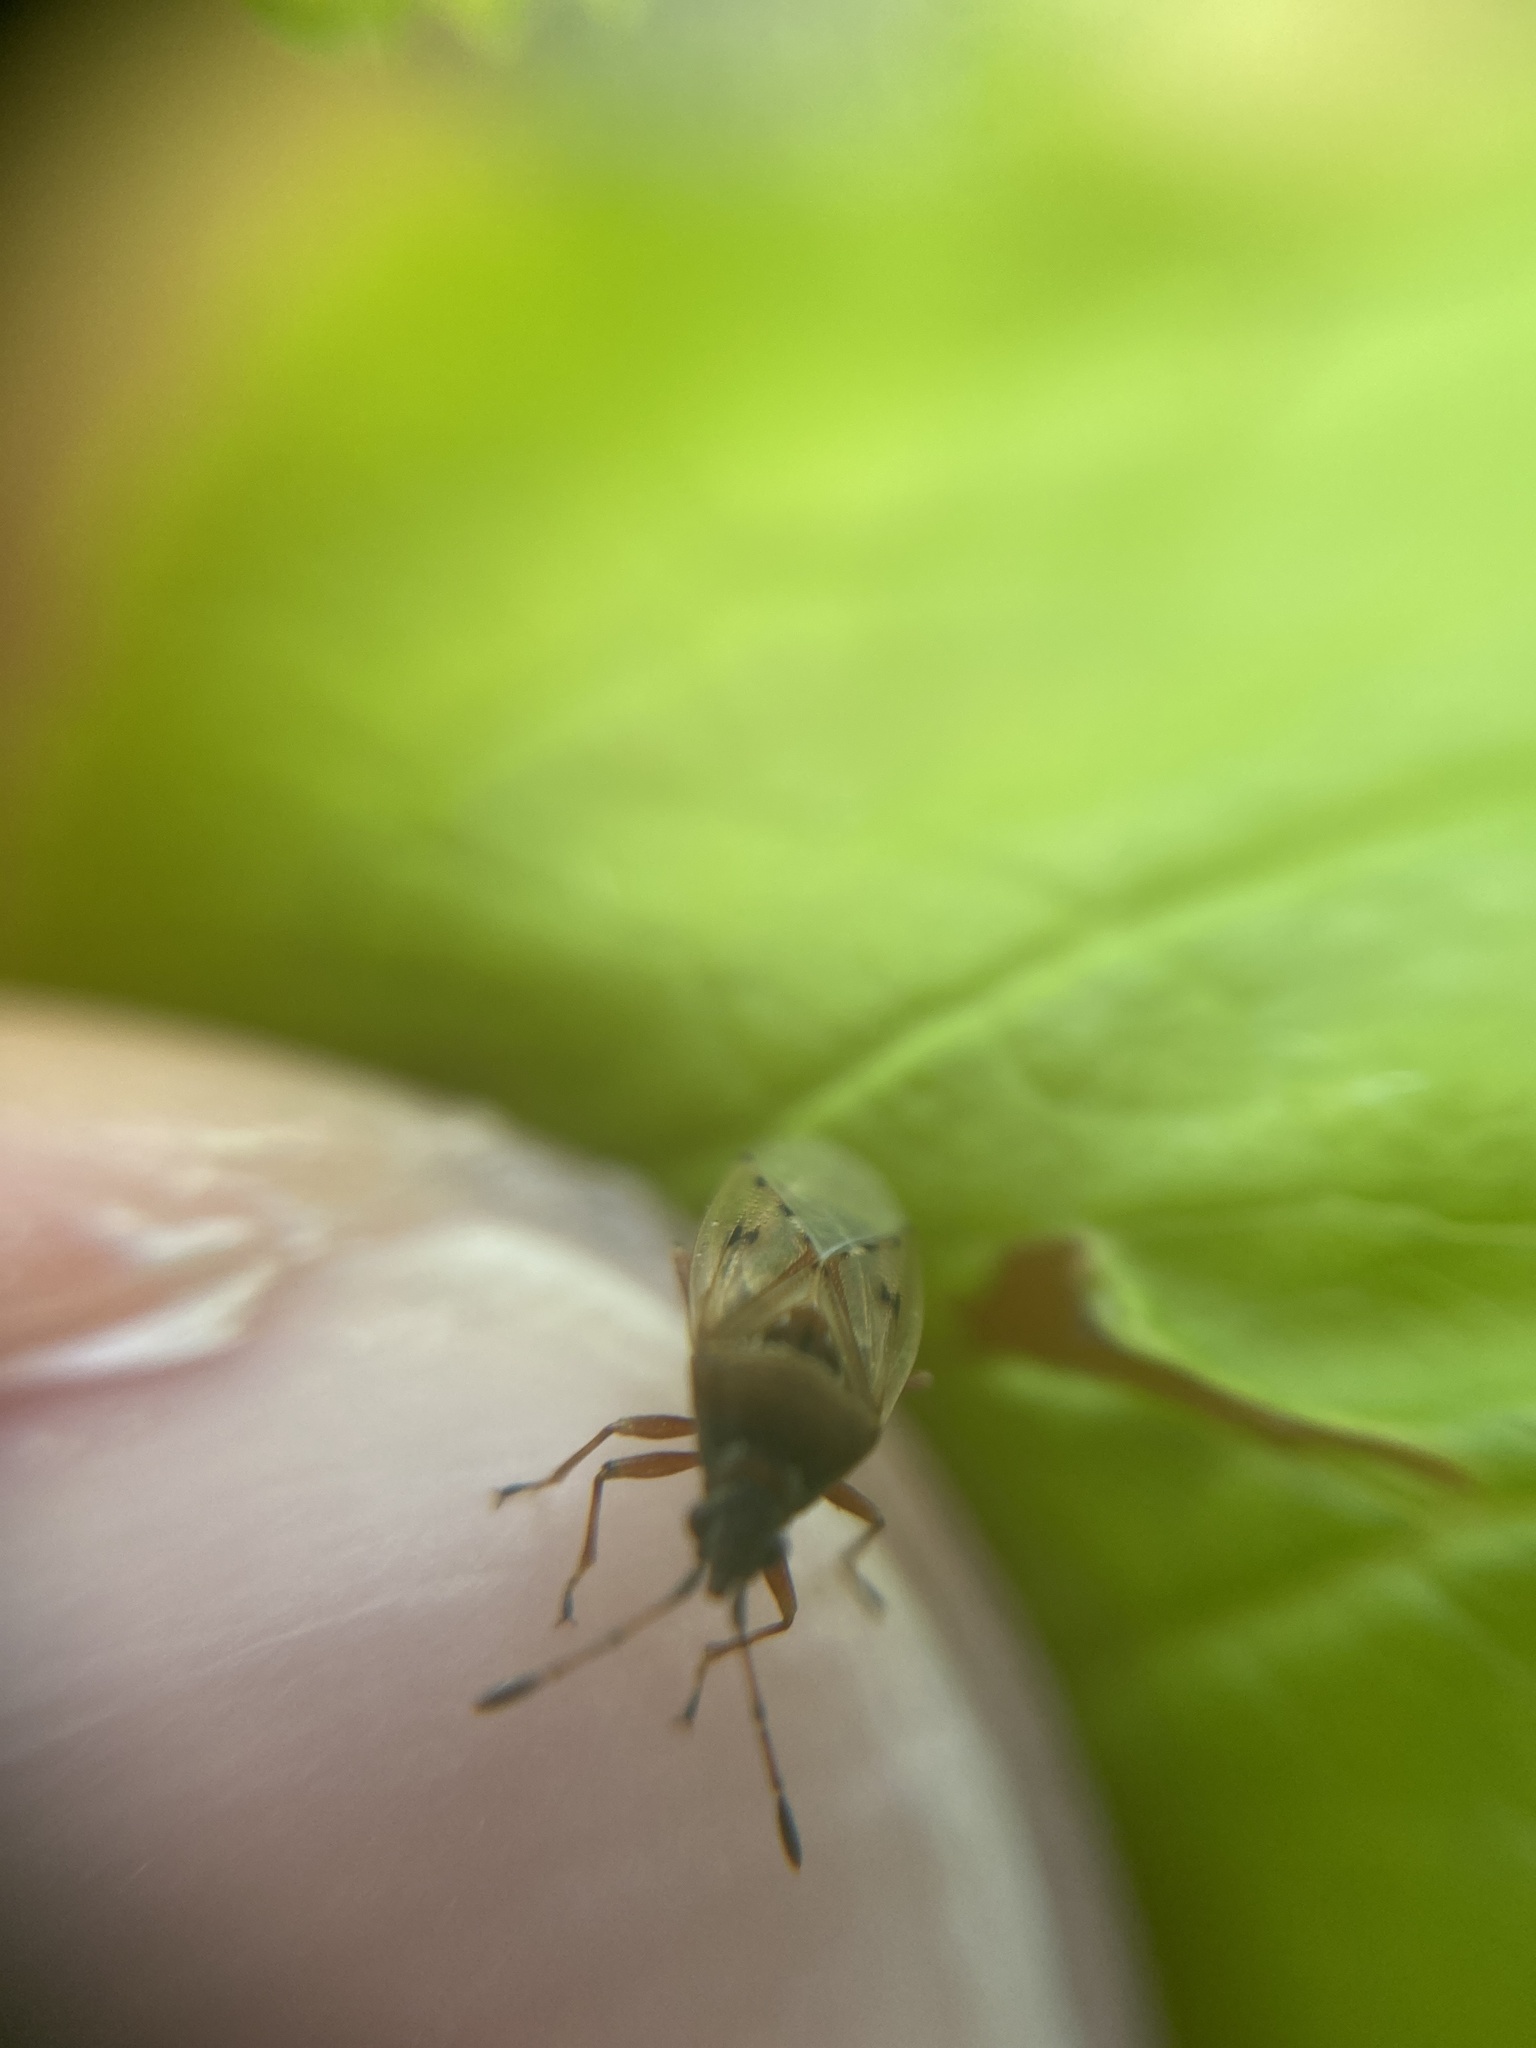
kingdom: Animalia
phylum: Arthropoda
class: Insecta
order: Hemiptera
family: Lygaeidae
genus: Kleidocerys
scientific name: Kleidocerys resedae
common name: Birch catkin bug
